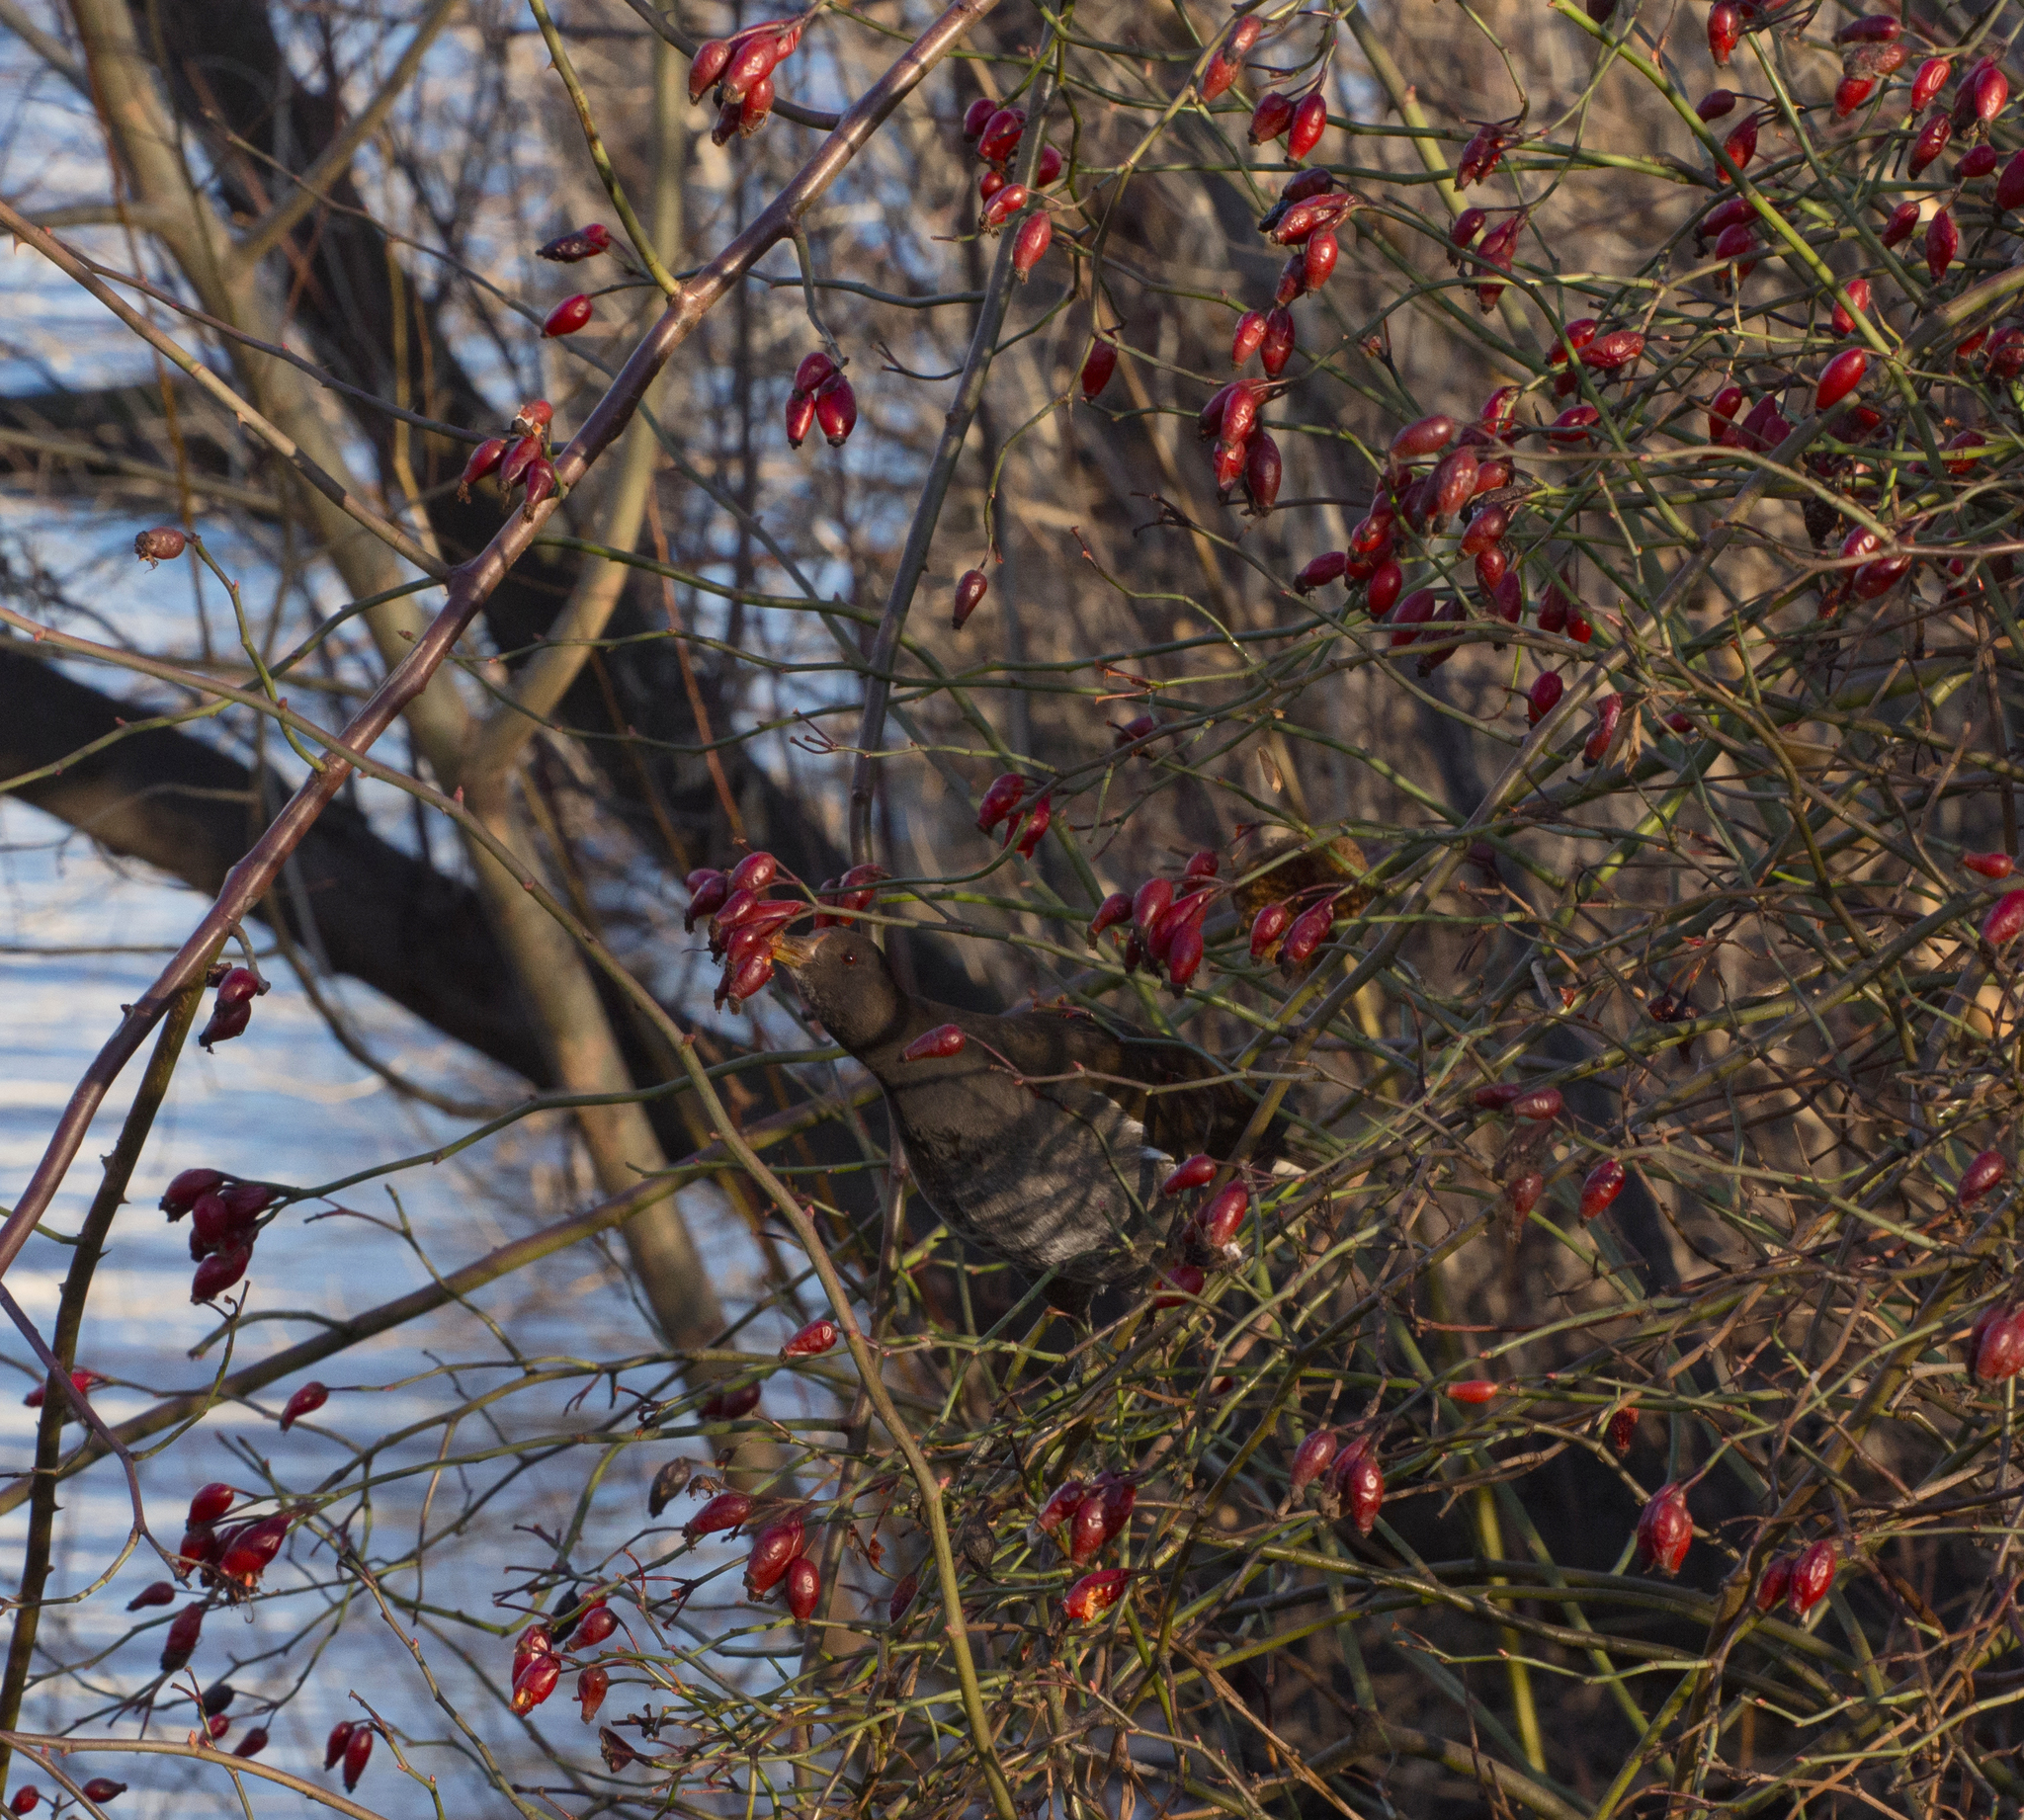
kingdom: Animalia
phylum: Chordata
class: Aves
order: Gruiformes
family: Rallidae
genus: Gallinula
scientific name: Gallinula chloropus
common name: Common moorhen
